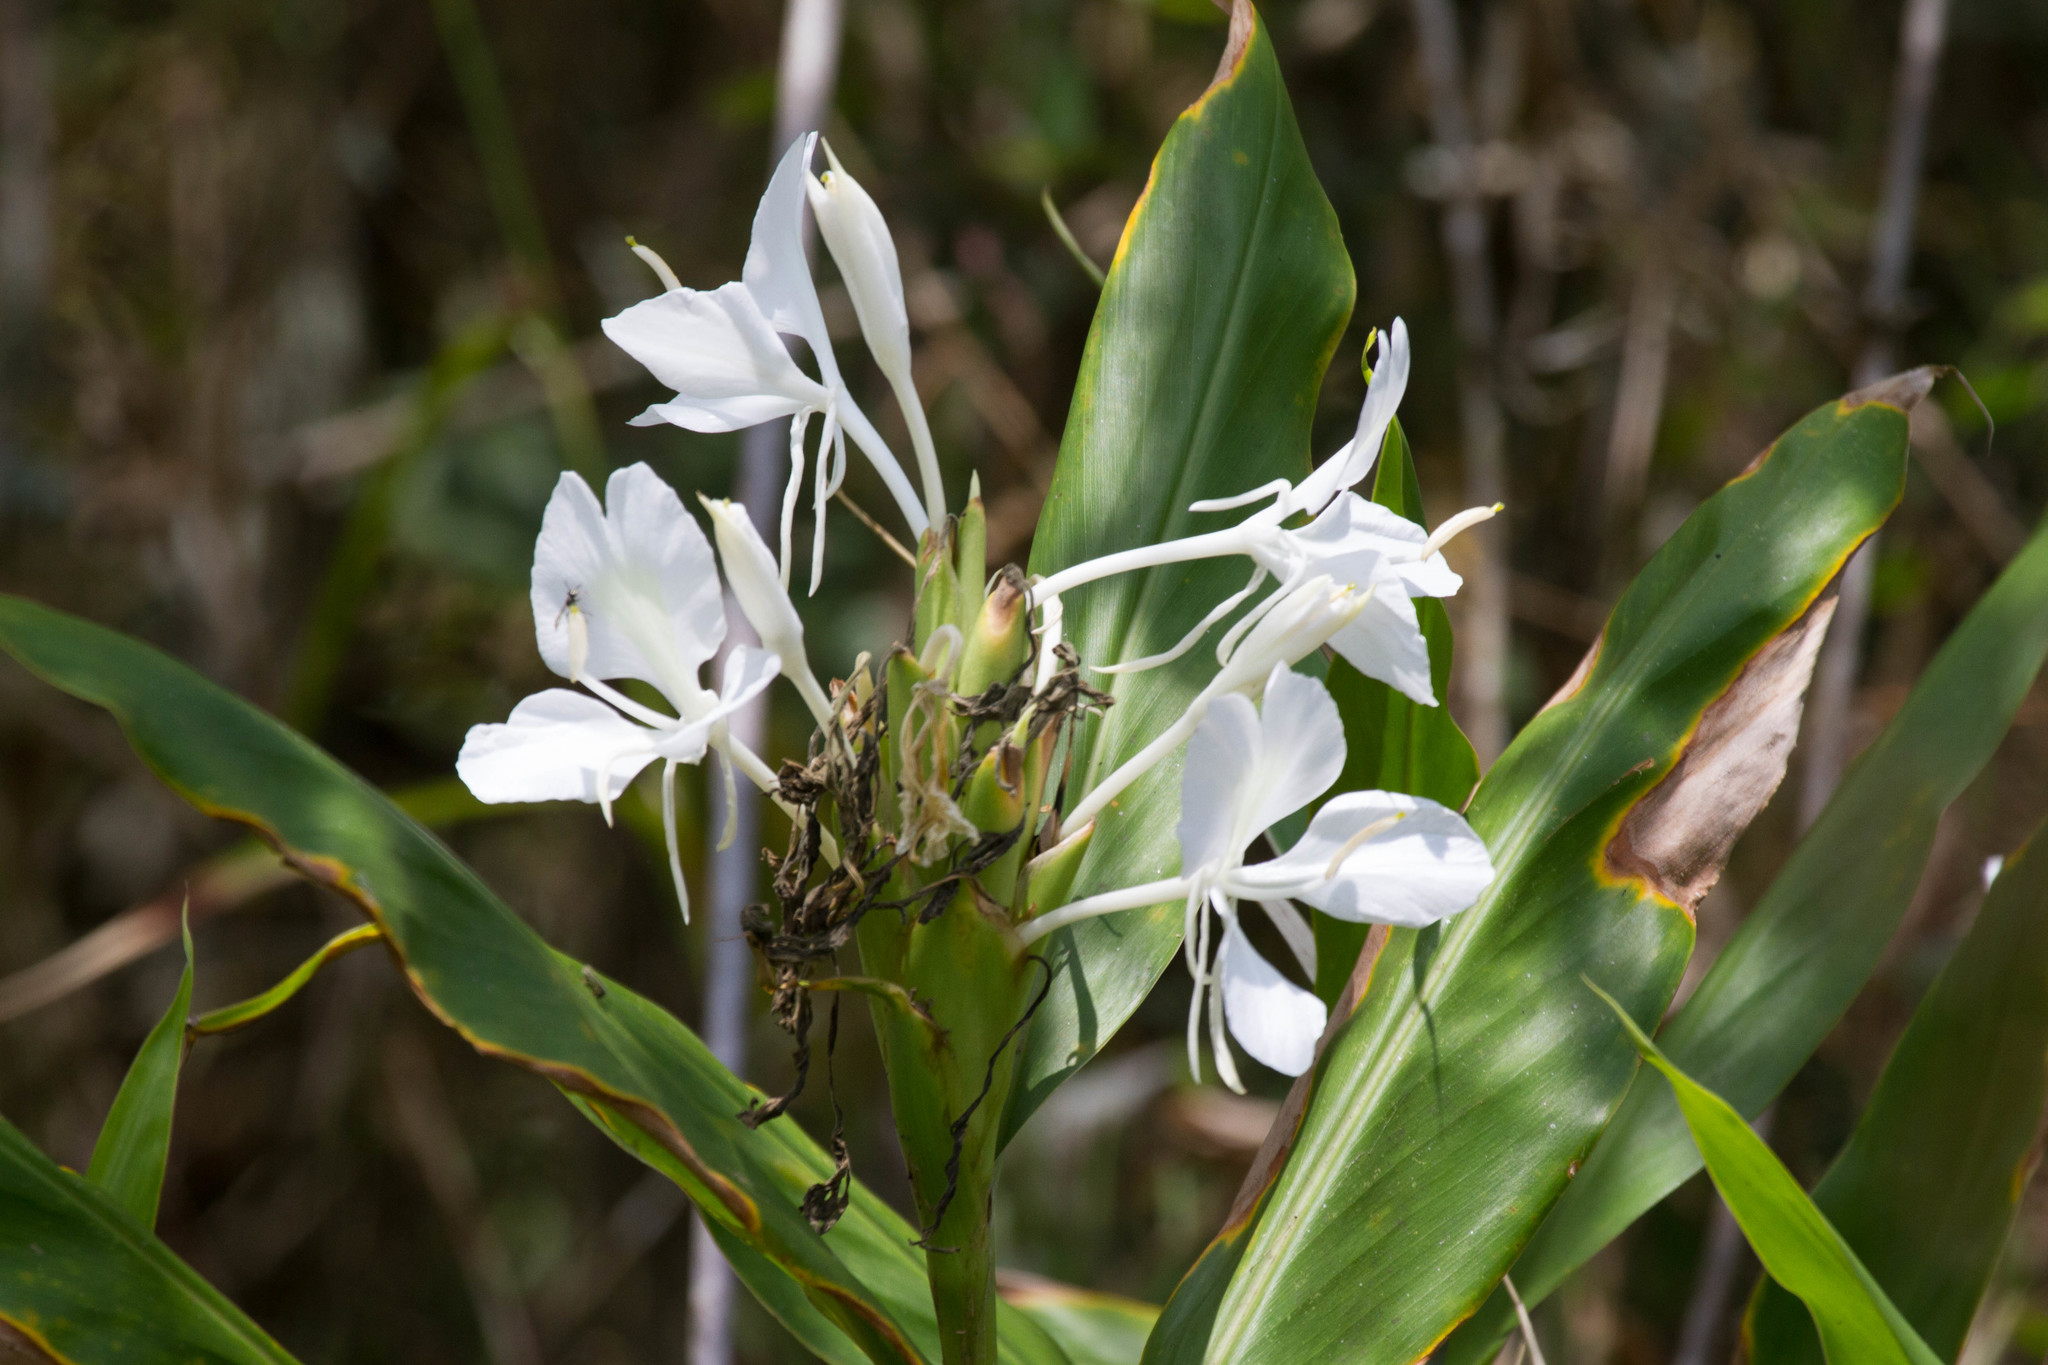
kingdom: Plantae
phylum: Tracheophyta
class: Liliopsida
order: Zingiberales
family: Zingiberaceae
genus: Hedychium
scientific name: Hedychium coronarium
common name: White garland-lily
